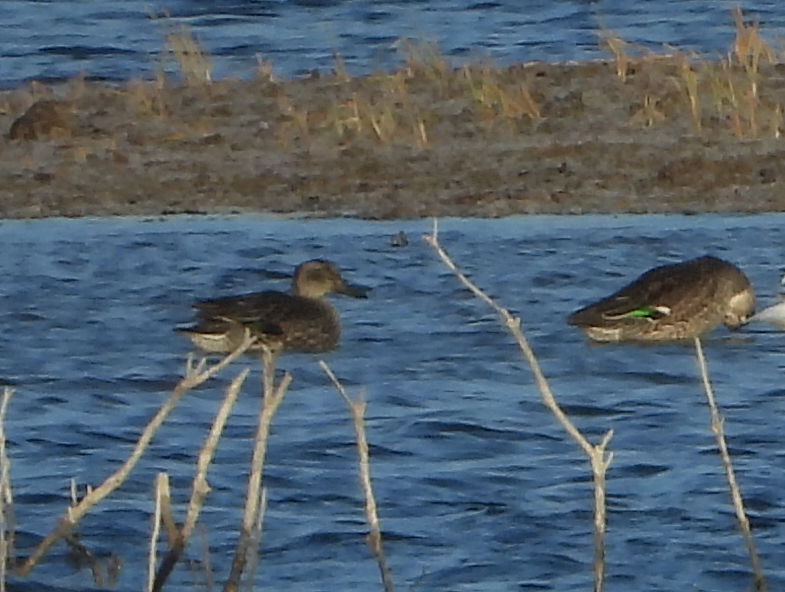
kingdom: Animalia
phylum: Chordata
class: Aves
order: Anseriformes
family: Anatidae
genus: Anas
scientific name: Anas crecca
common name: Eurasian teal
